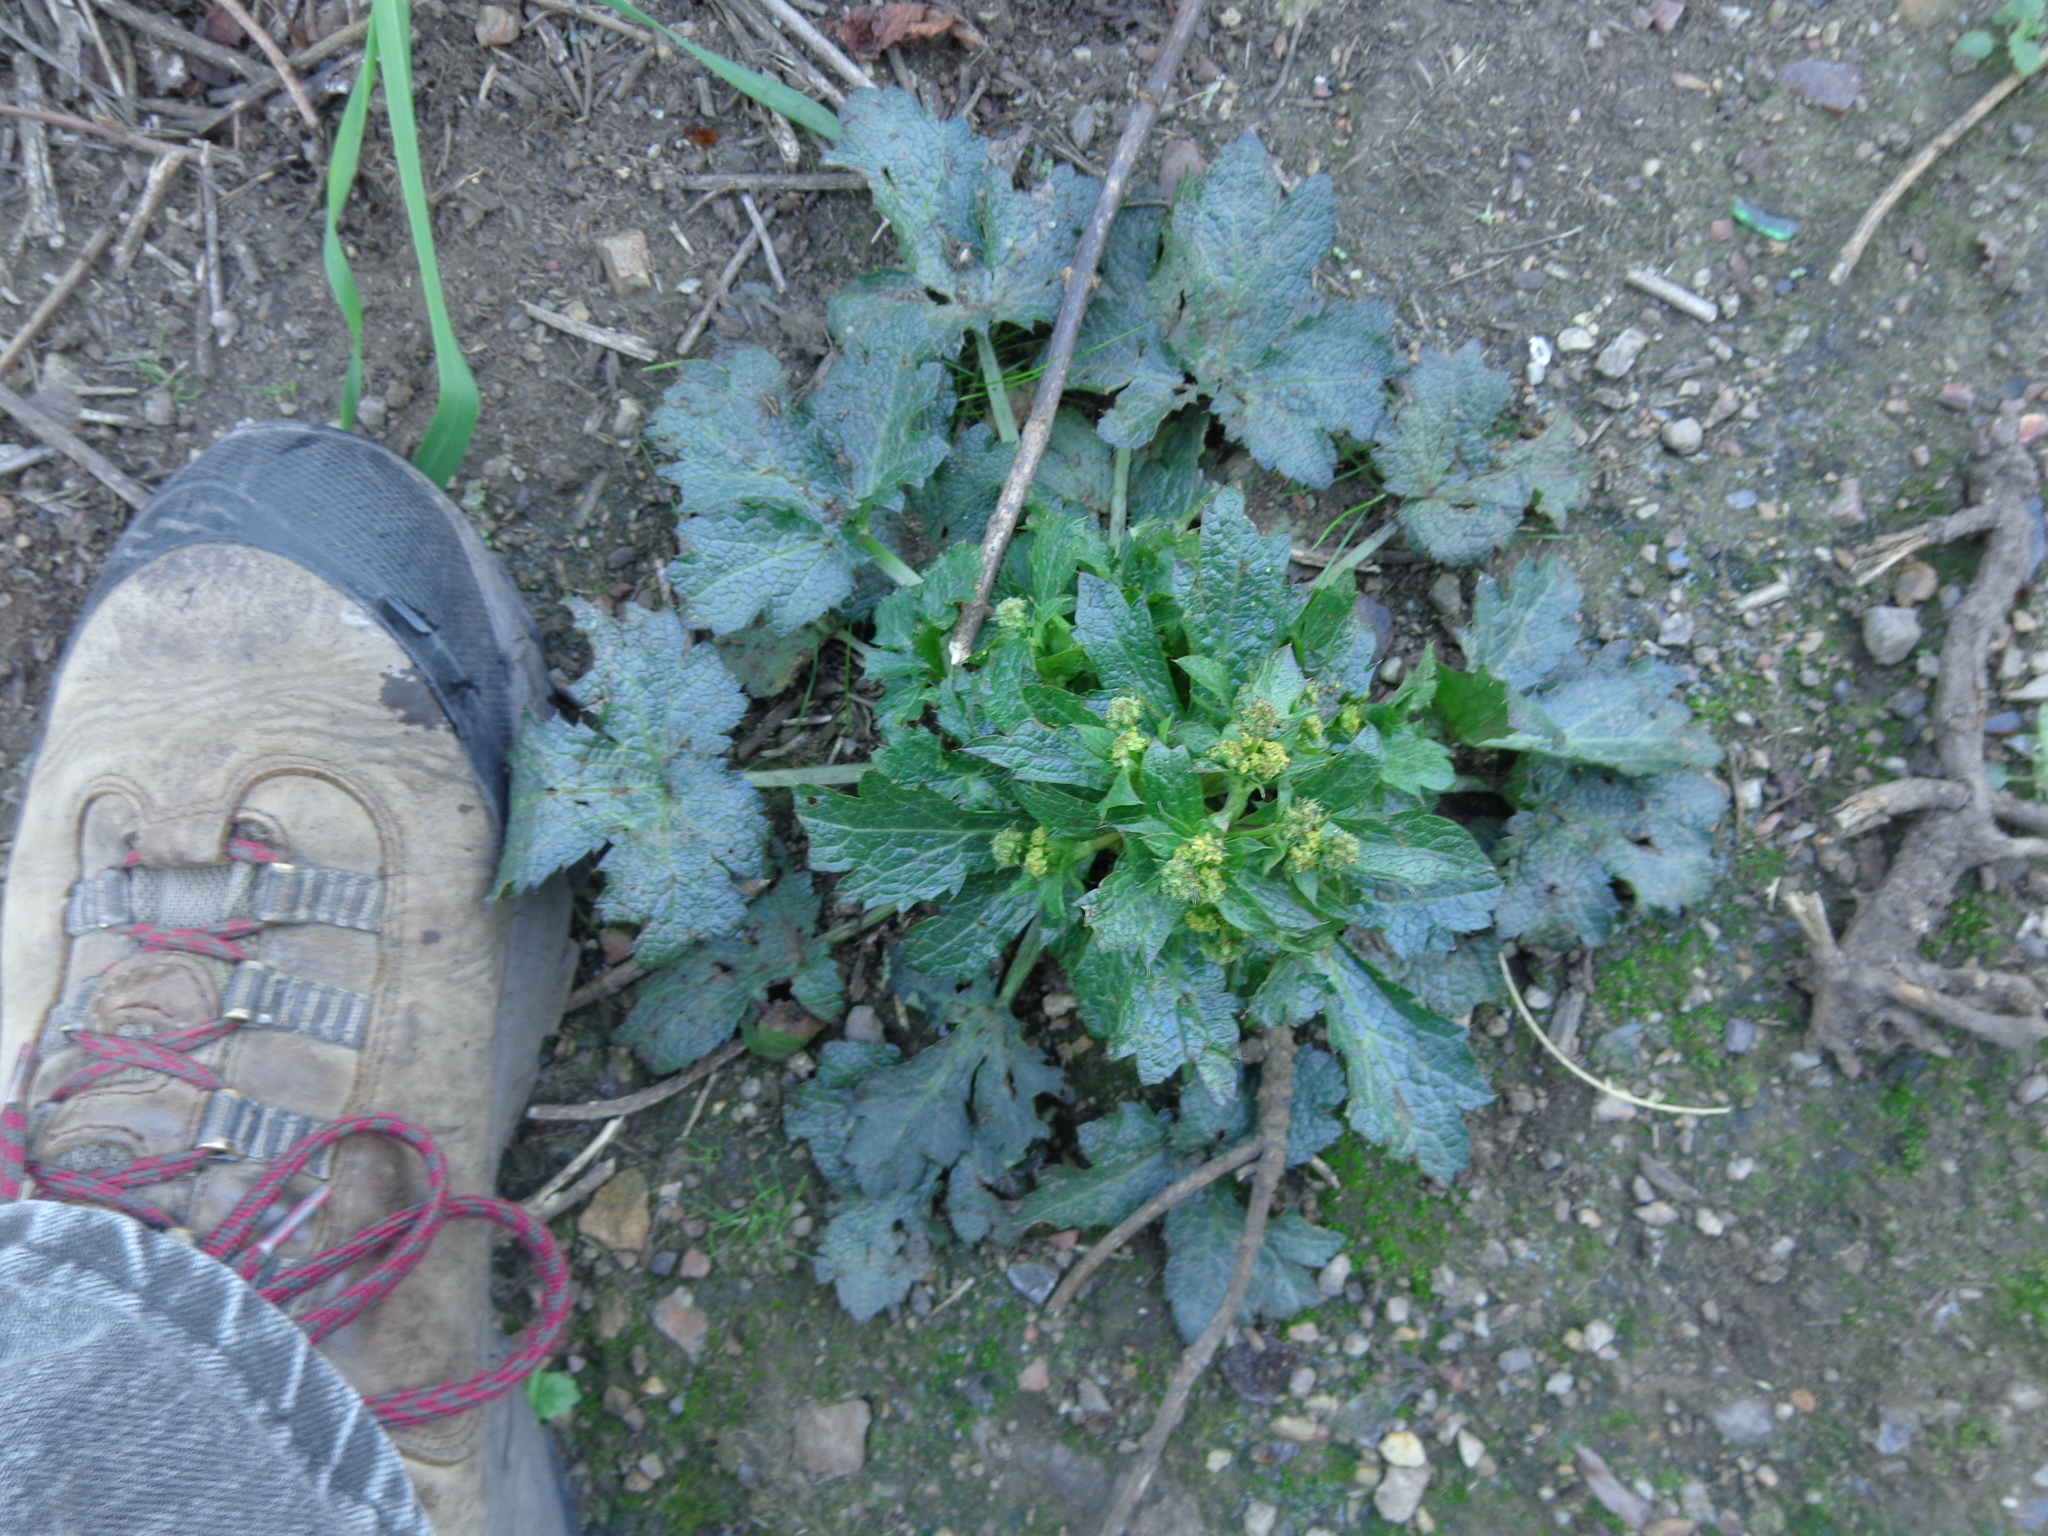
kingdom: Plantae
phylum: Tracheophyta
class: Magnoliopsida
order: Apiales
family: Apiaceae
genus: Sanicula
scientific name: Sanicula crassicaulis
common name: Western snakeroot
